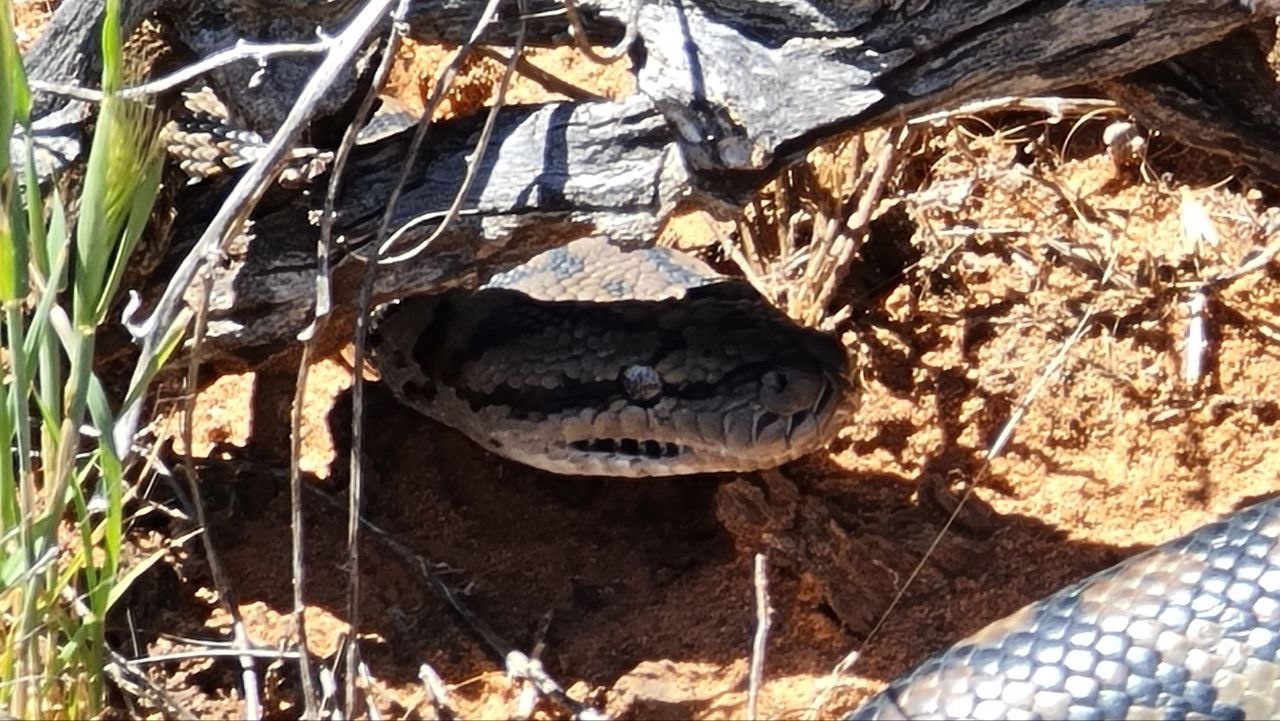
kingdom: Animalia
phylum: Chordata
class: Squamata
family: Pythonidae
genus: Morelia
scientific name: Morelia spilota
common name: Carpet python
